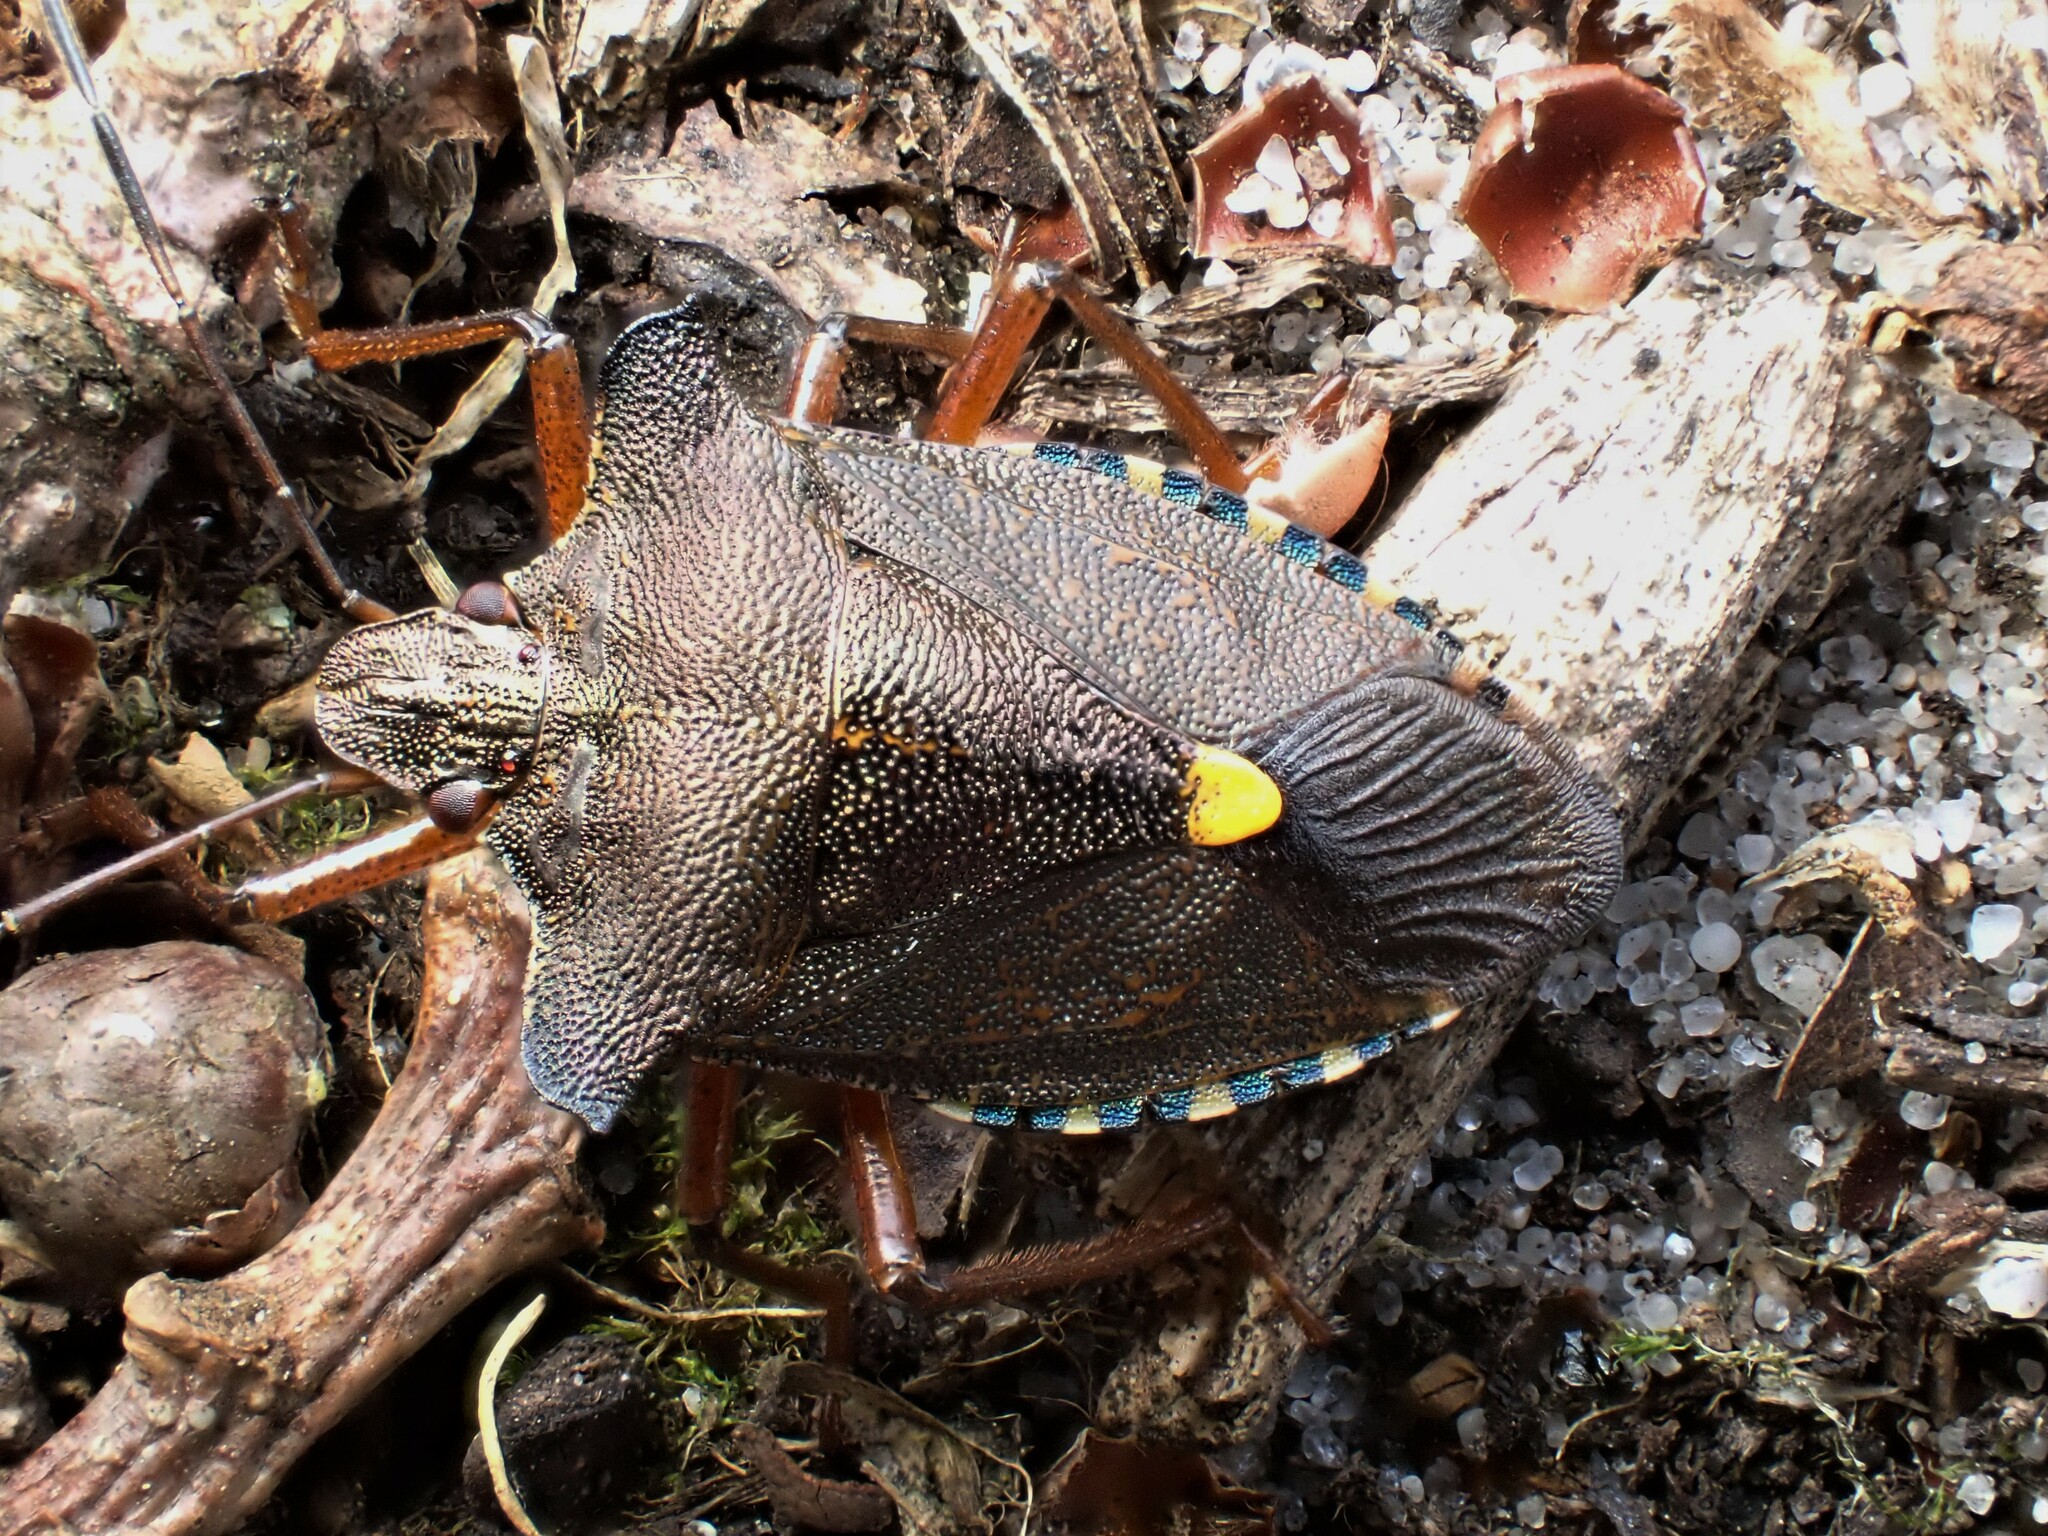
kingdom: Animalia
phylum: Arthropoda
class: Insecta
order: Hemiptera
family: Pentatomidae
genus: Pentatoma
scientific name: Pentatoma rufipes
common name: Forest bug
